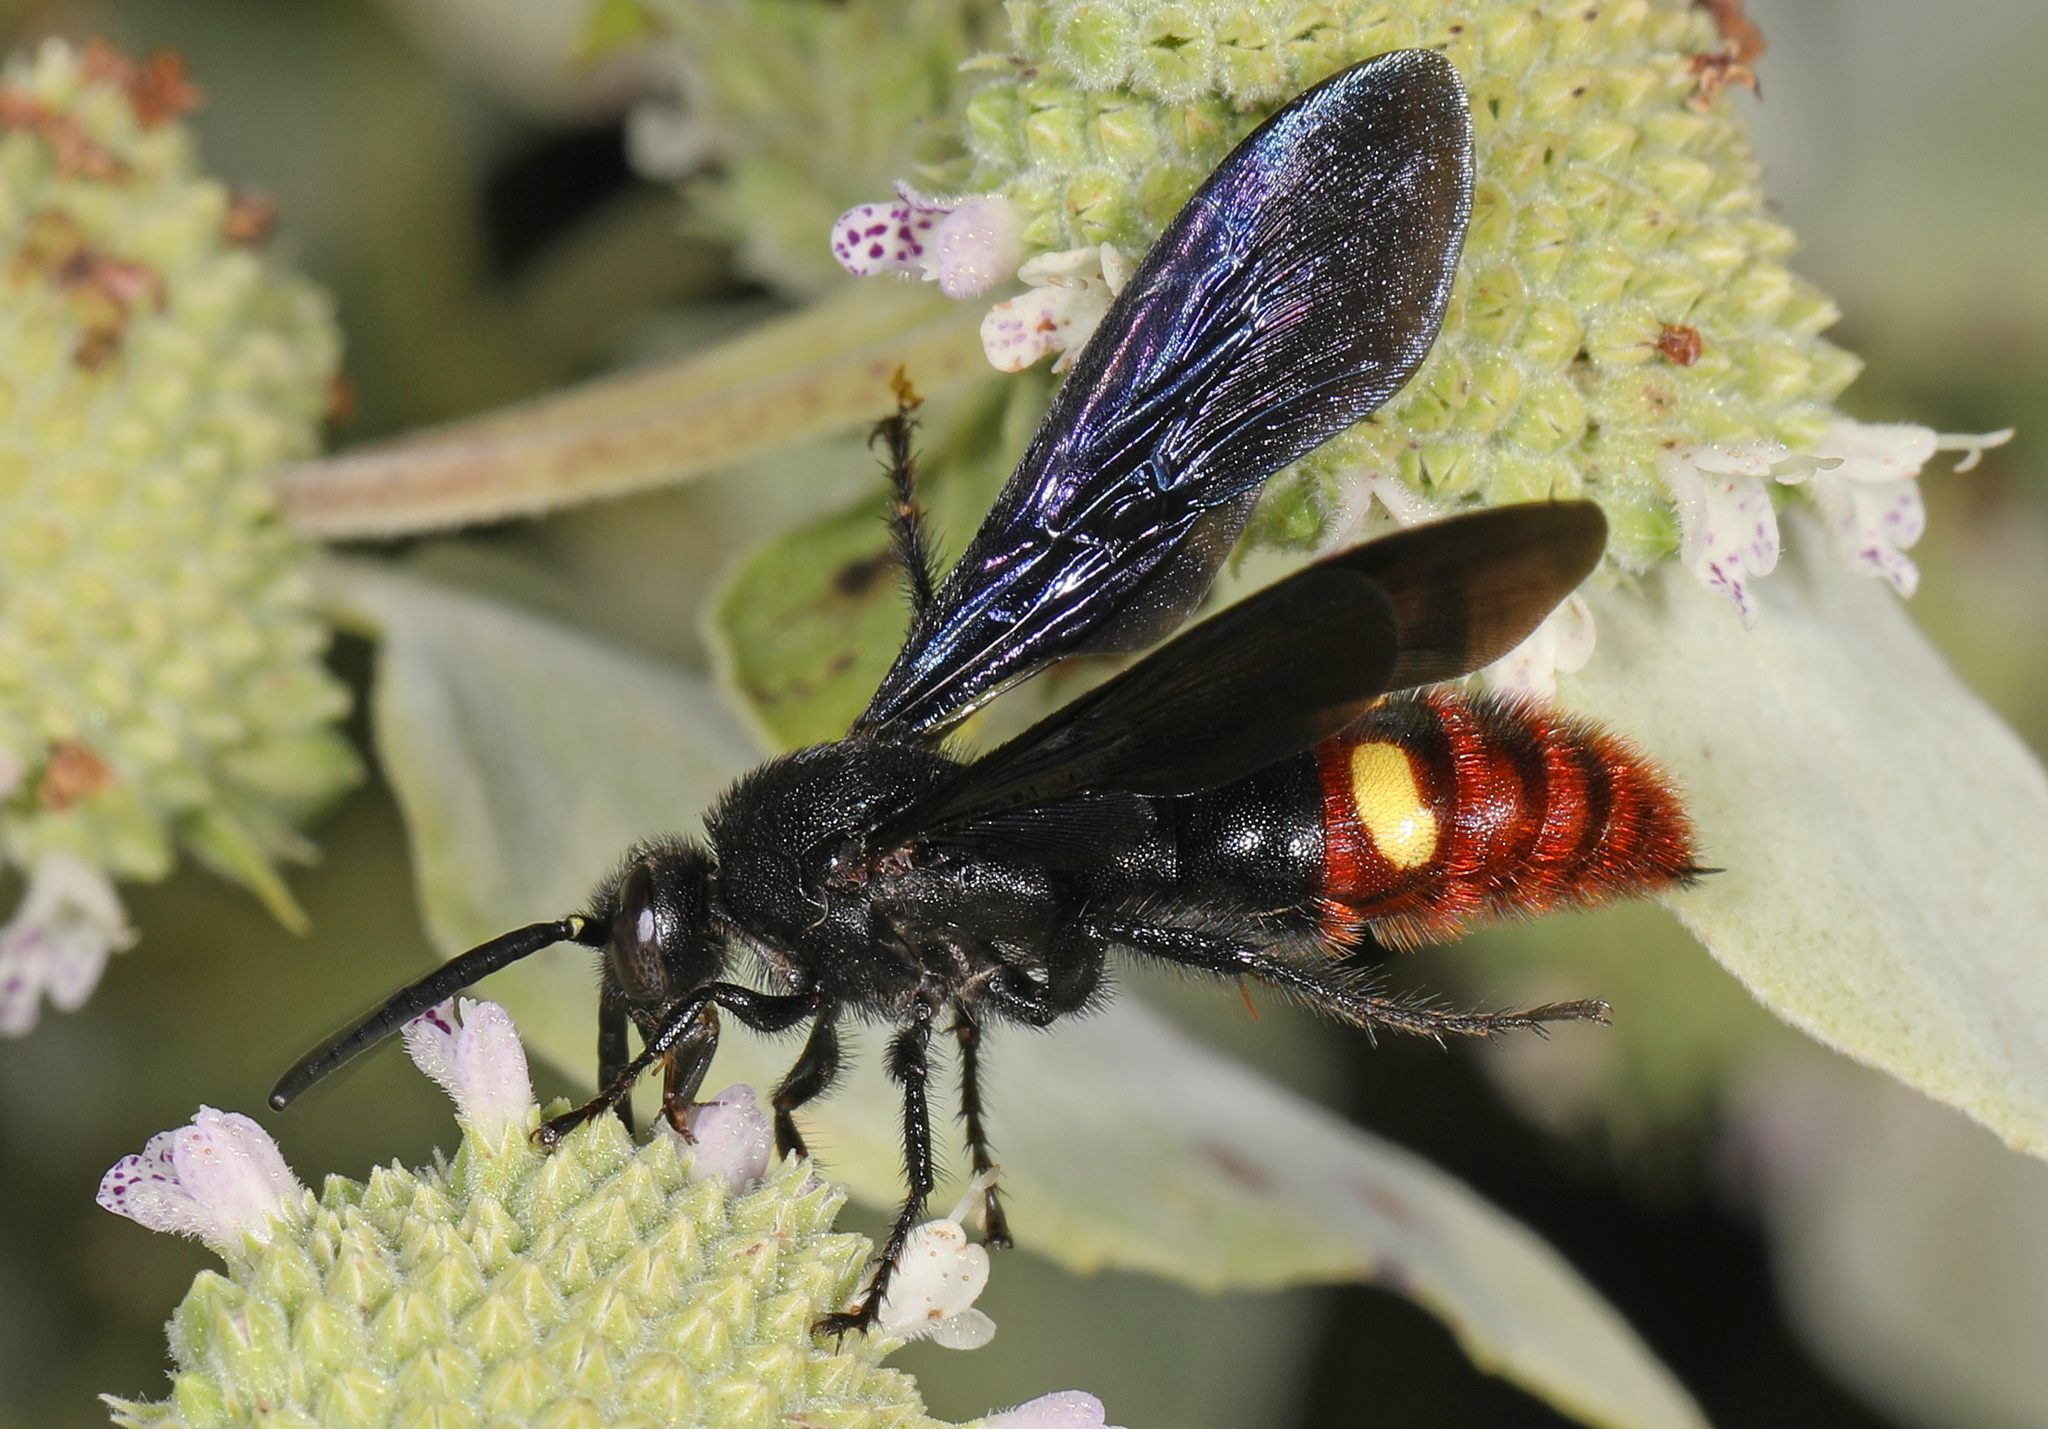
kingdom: Animalia
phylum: Arthropoda
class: Insecta
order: Hymenoptera
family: Scoliidae
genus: Scolia
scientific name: Scolia dubia
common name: Blue-winged scoliid wasp
